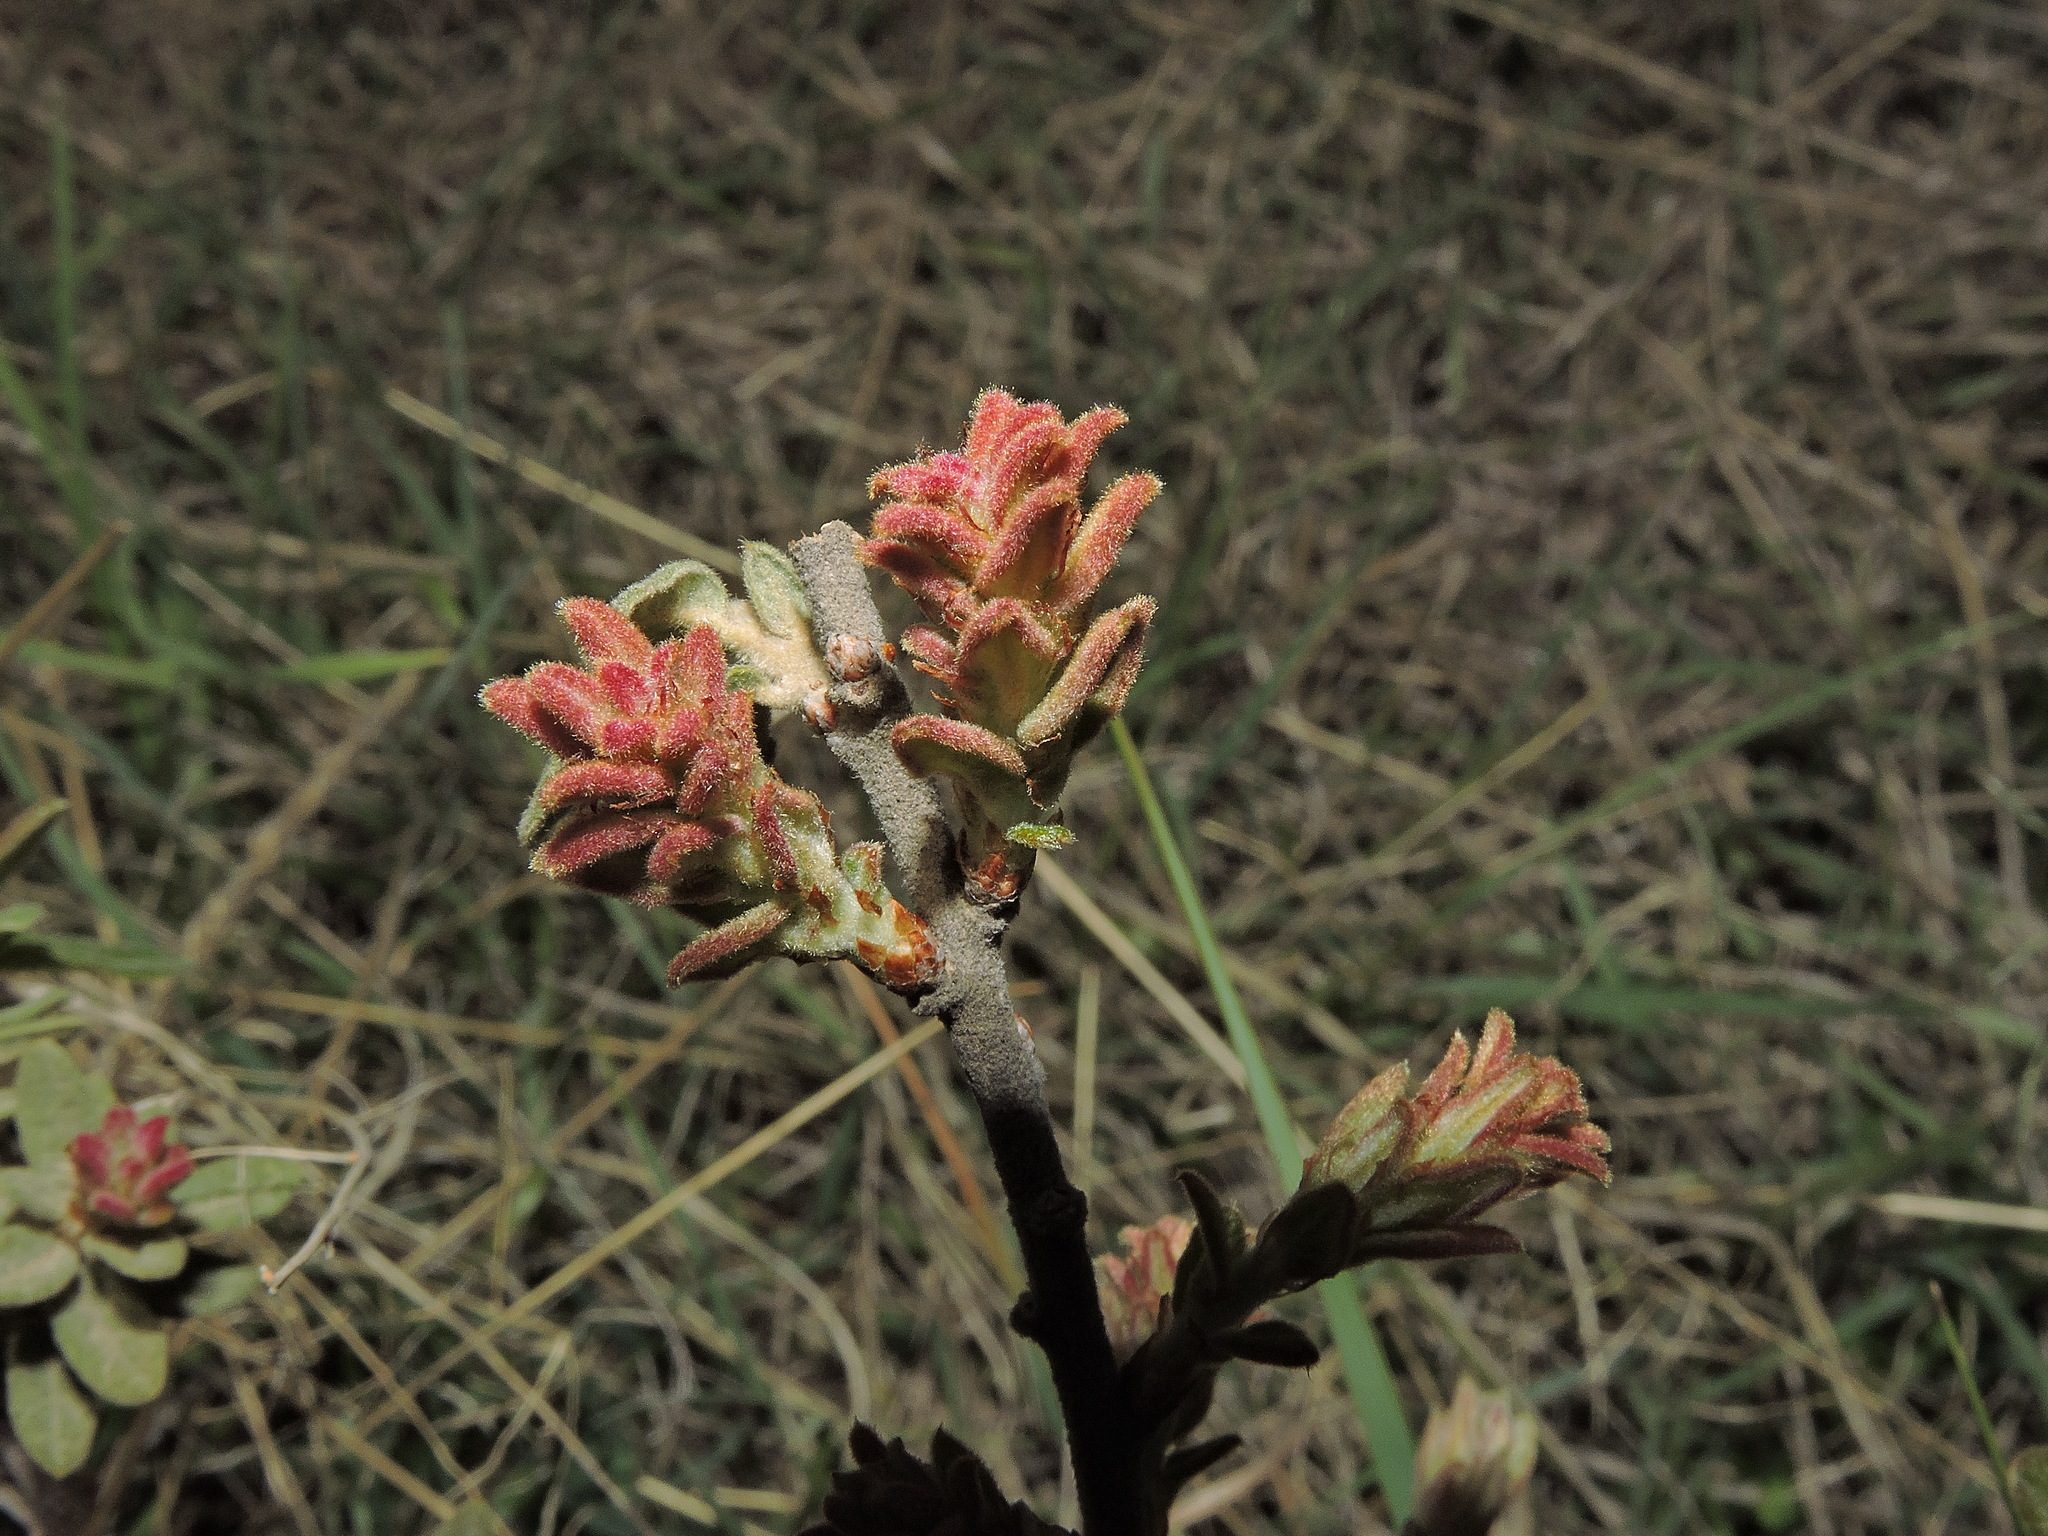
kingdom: Plantae
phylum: Tracheophyta
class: Magnoliopsida
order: Fagales
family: Fagaceae
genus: Quercus
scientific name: Quercus microphylla
